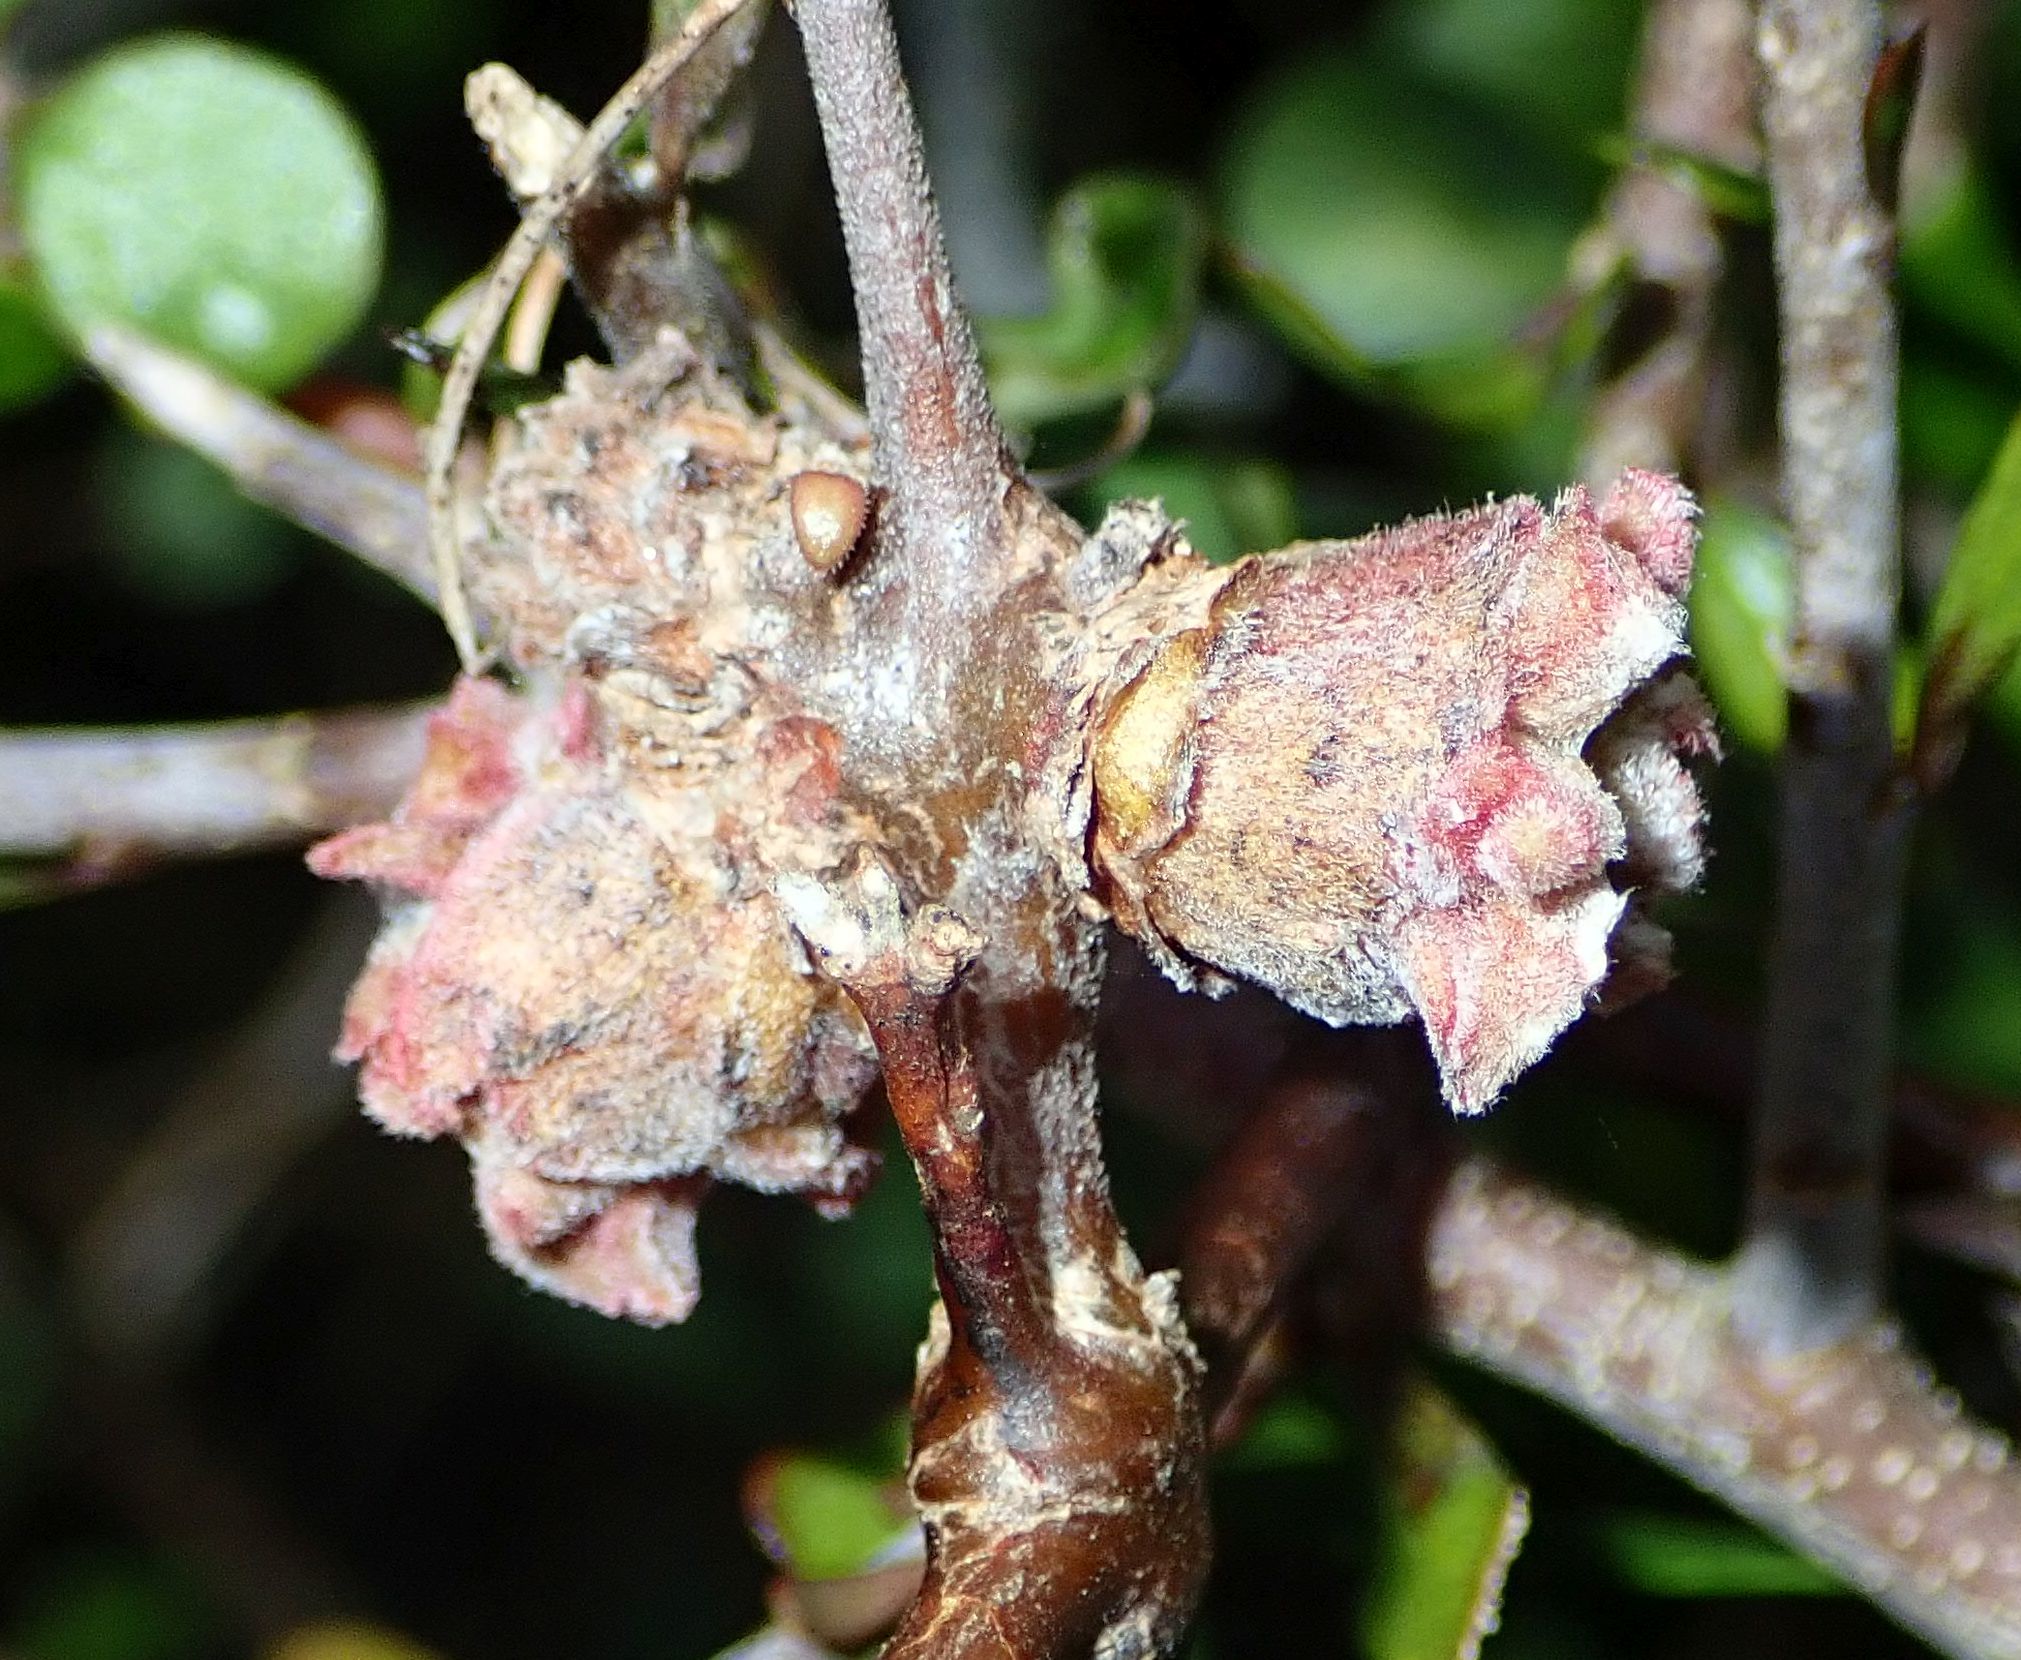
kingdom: Plantae
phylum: Tracheophyta
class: Magnoliopsida
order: Gentianales
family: Rubiaceae
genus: Coprosma
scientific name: Coprosma crassifolia
